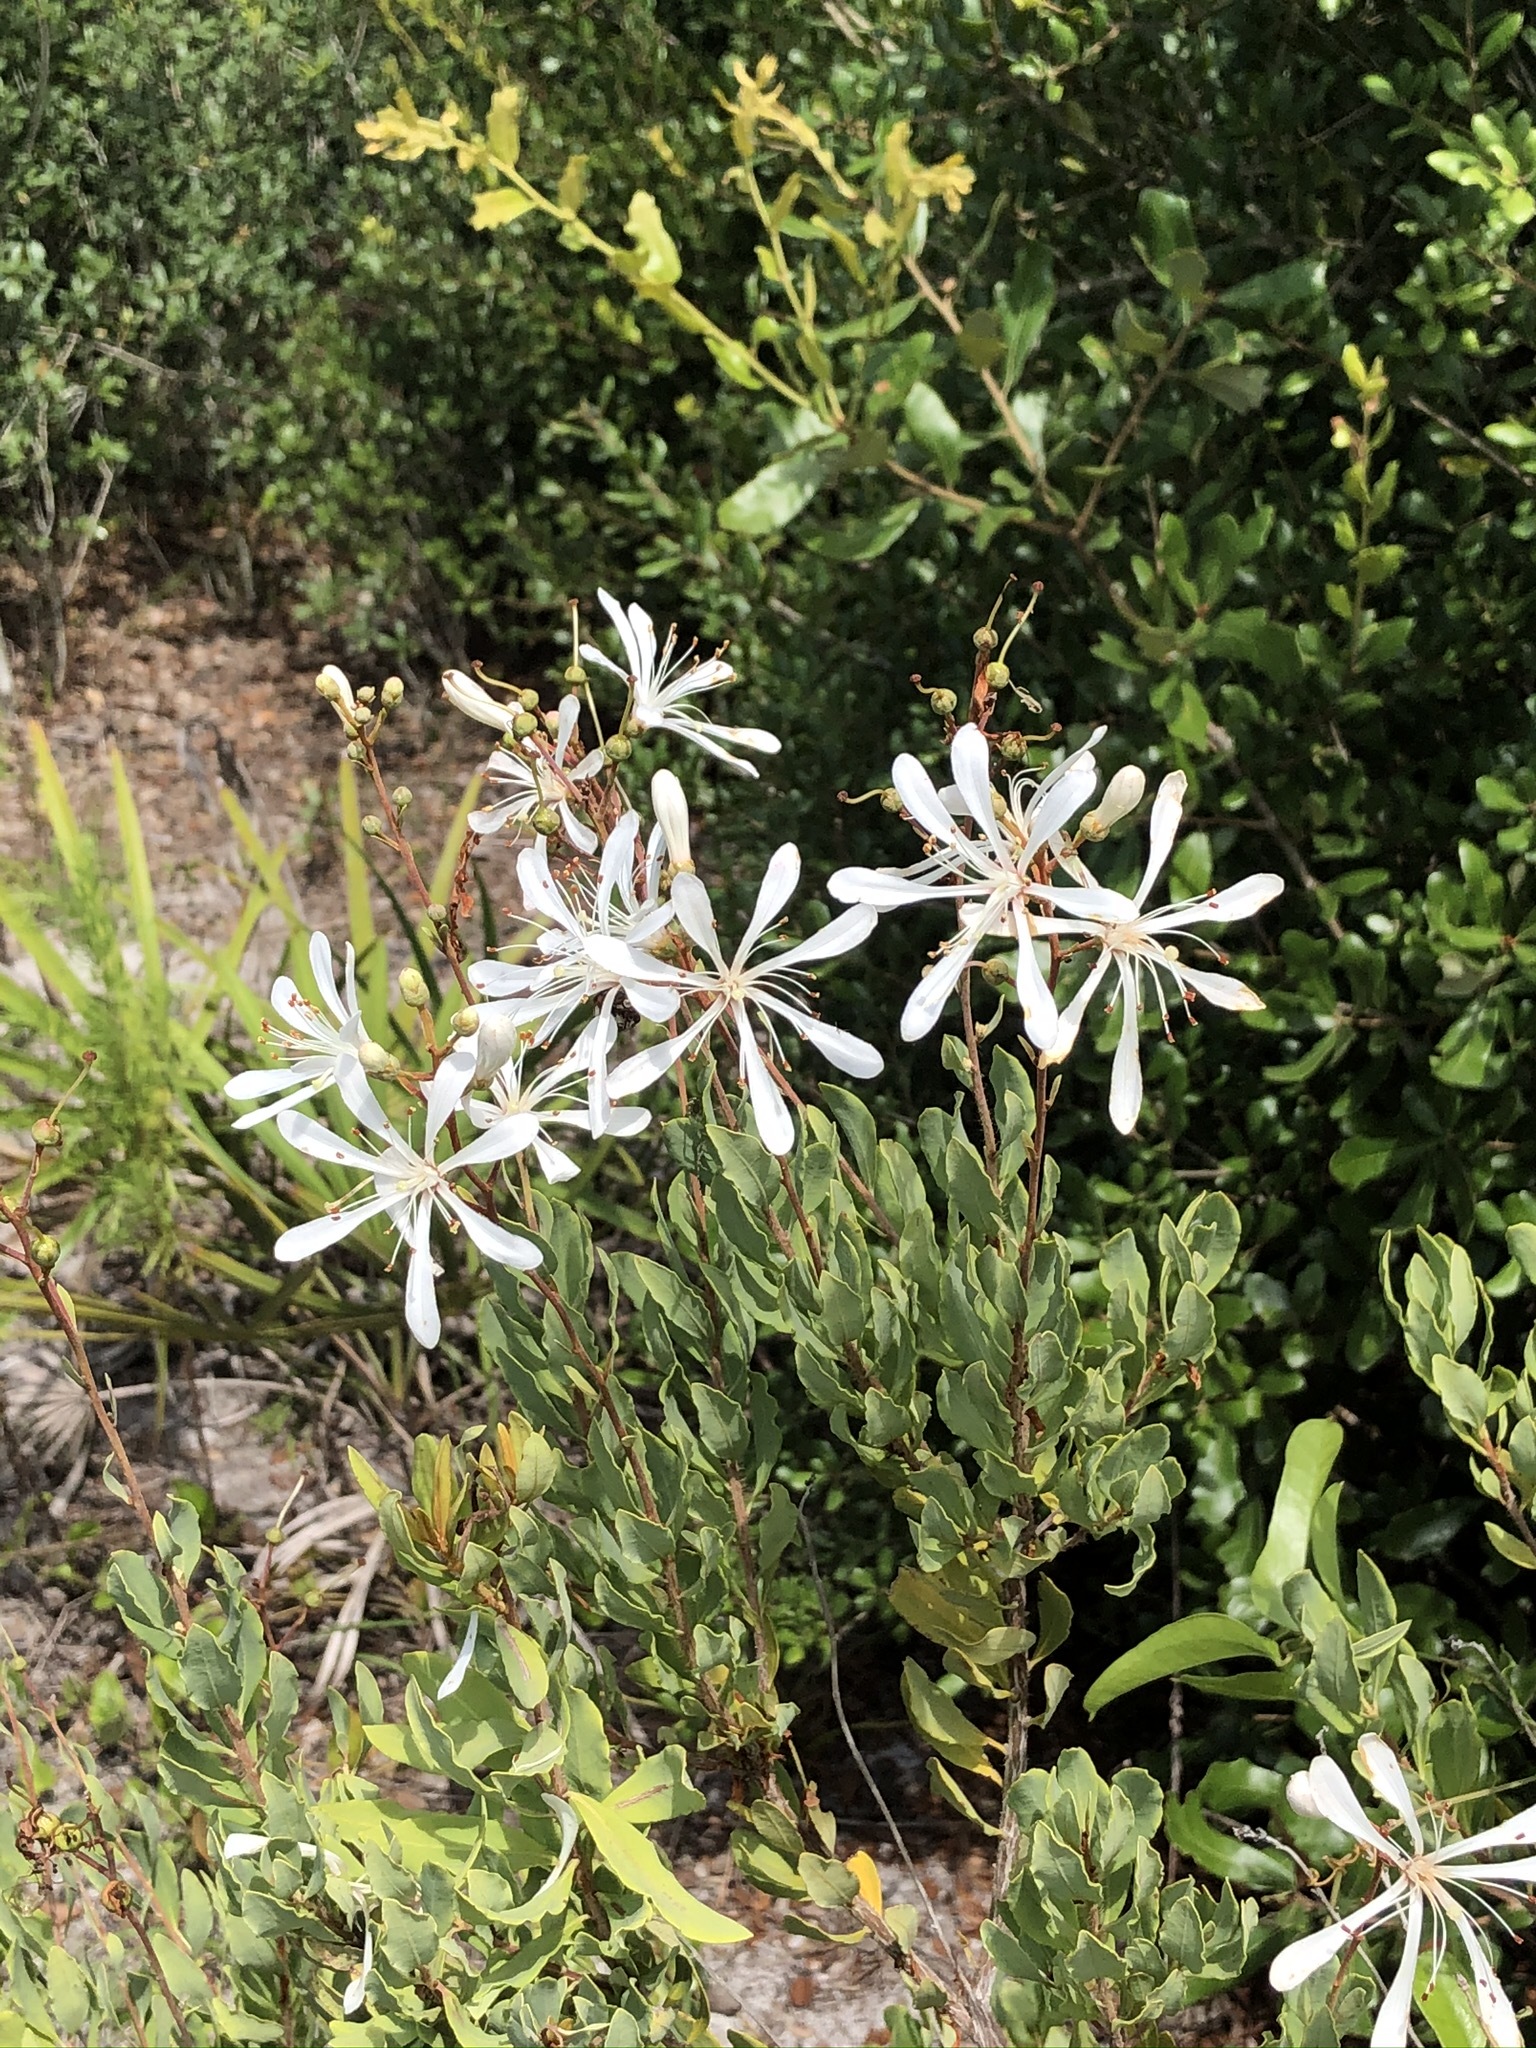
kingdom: Plantae
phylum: Tracheophyta
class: Magnoliopsida
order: Ericales
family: Ericaceae
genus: Bejaria
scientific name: Bejaria racemosa
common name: Tarflower
